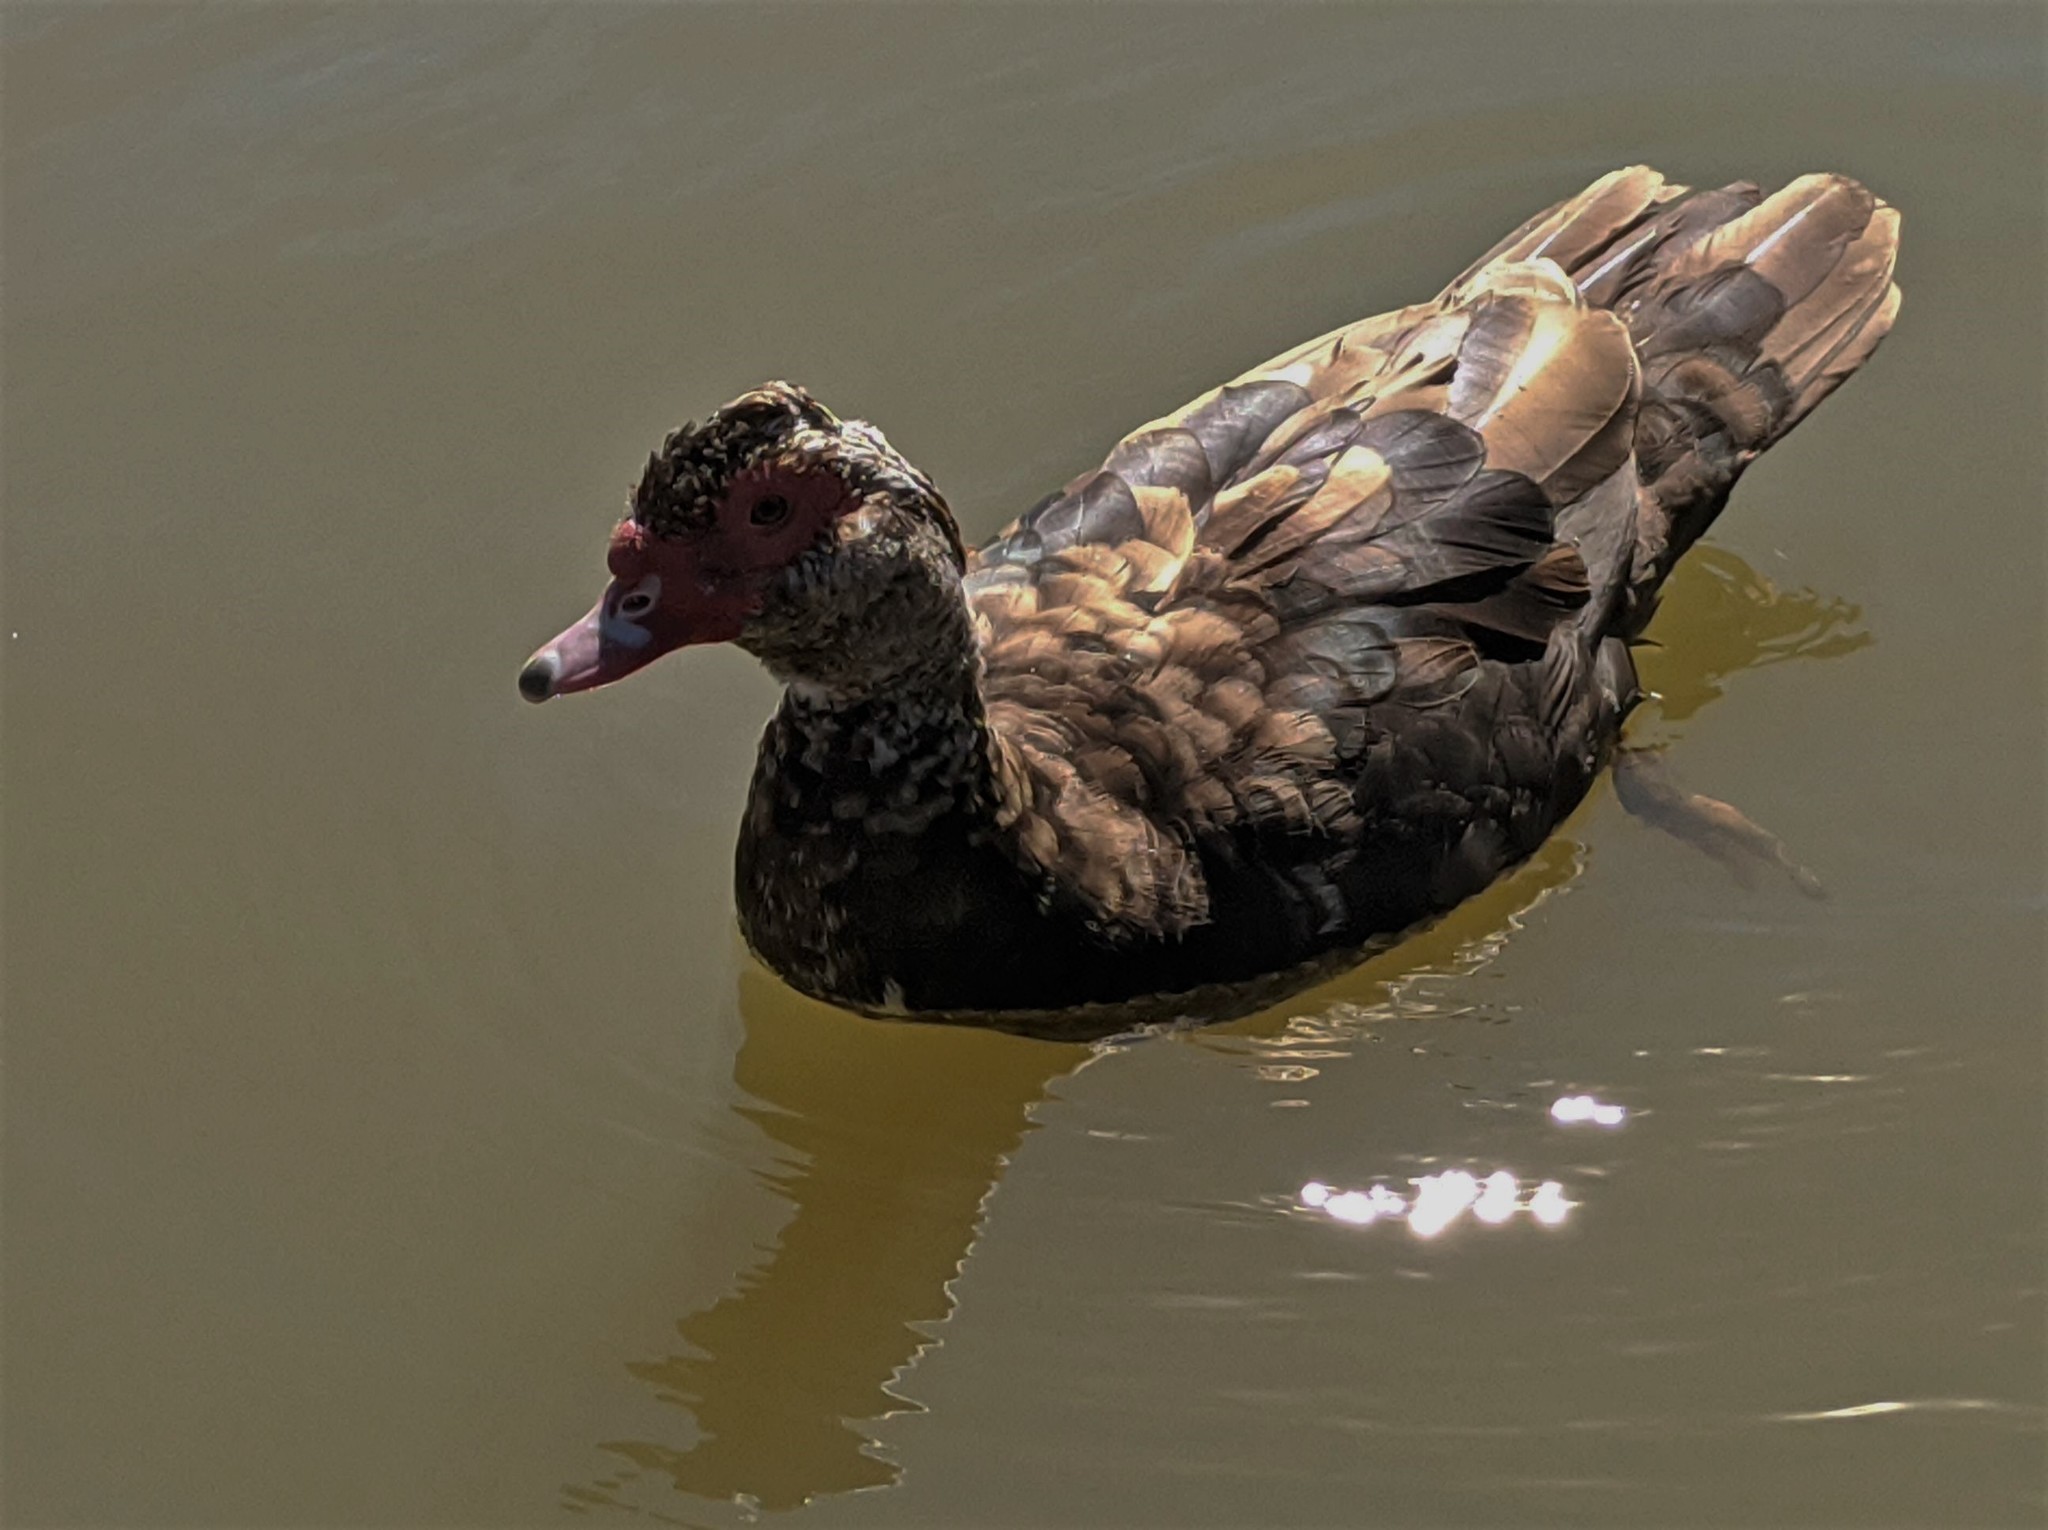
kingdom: Animalia
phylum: Chordata
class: Aves
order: Anseriformes
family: Anatidae
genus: Cairina
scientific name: Cairina moschata
